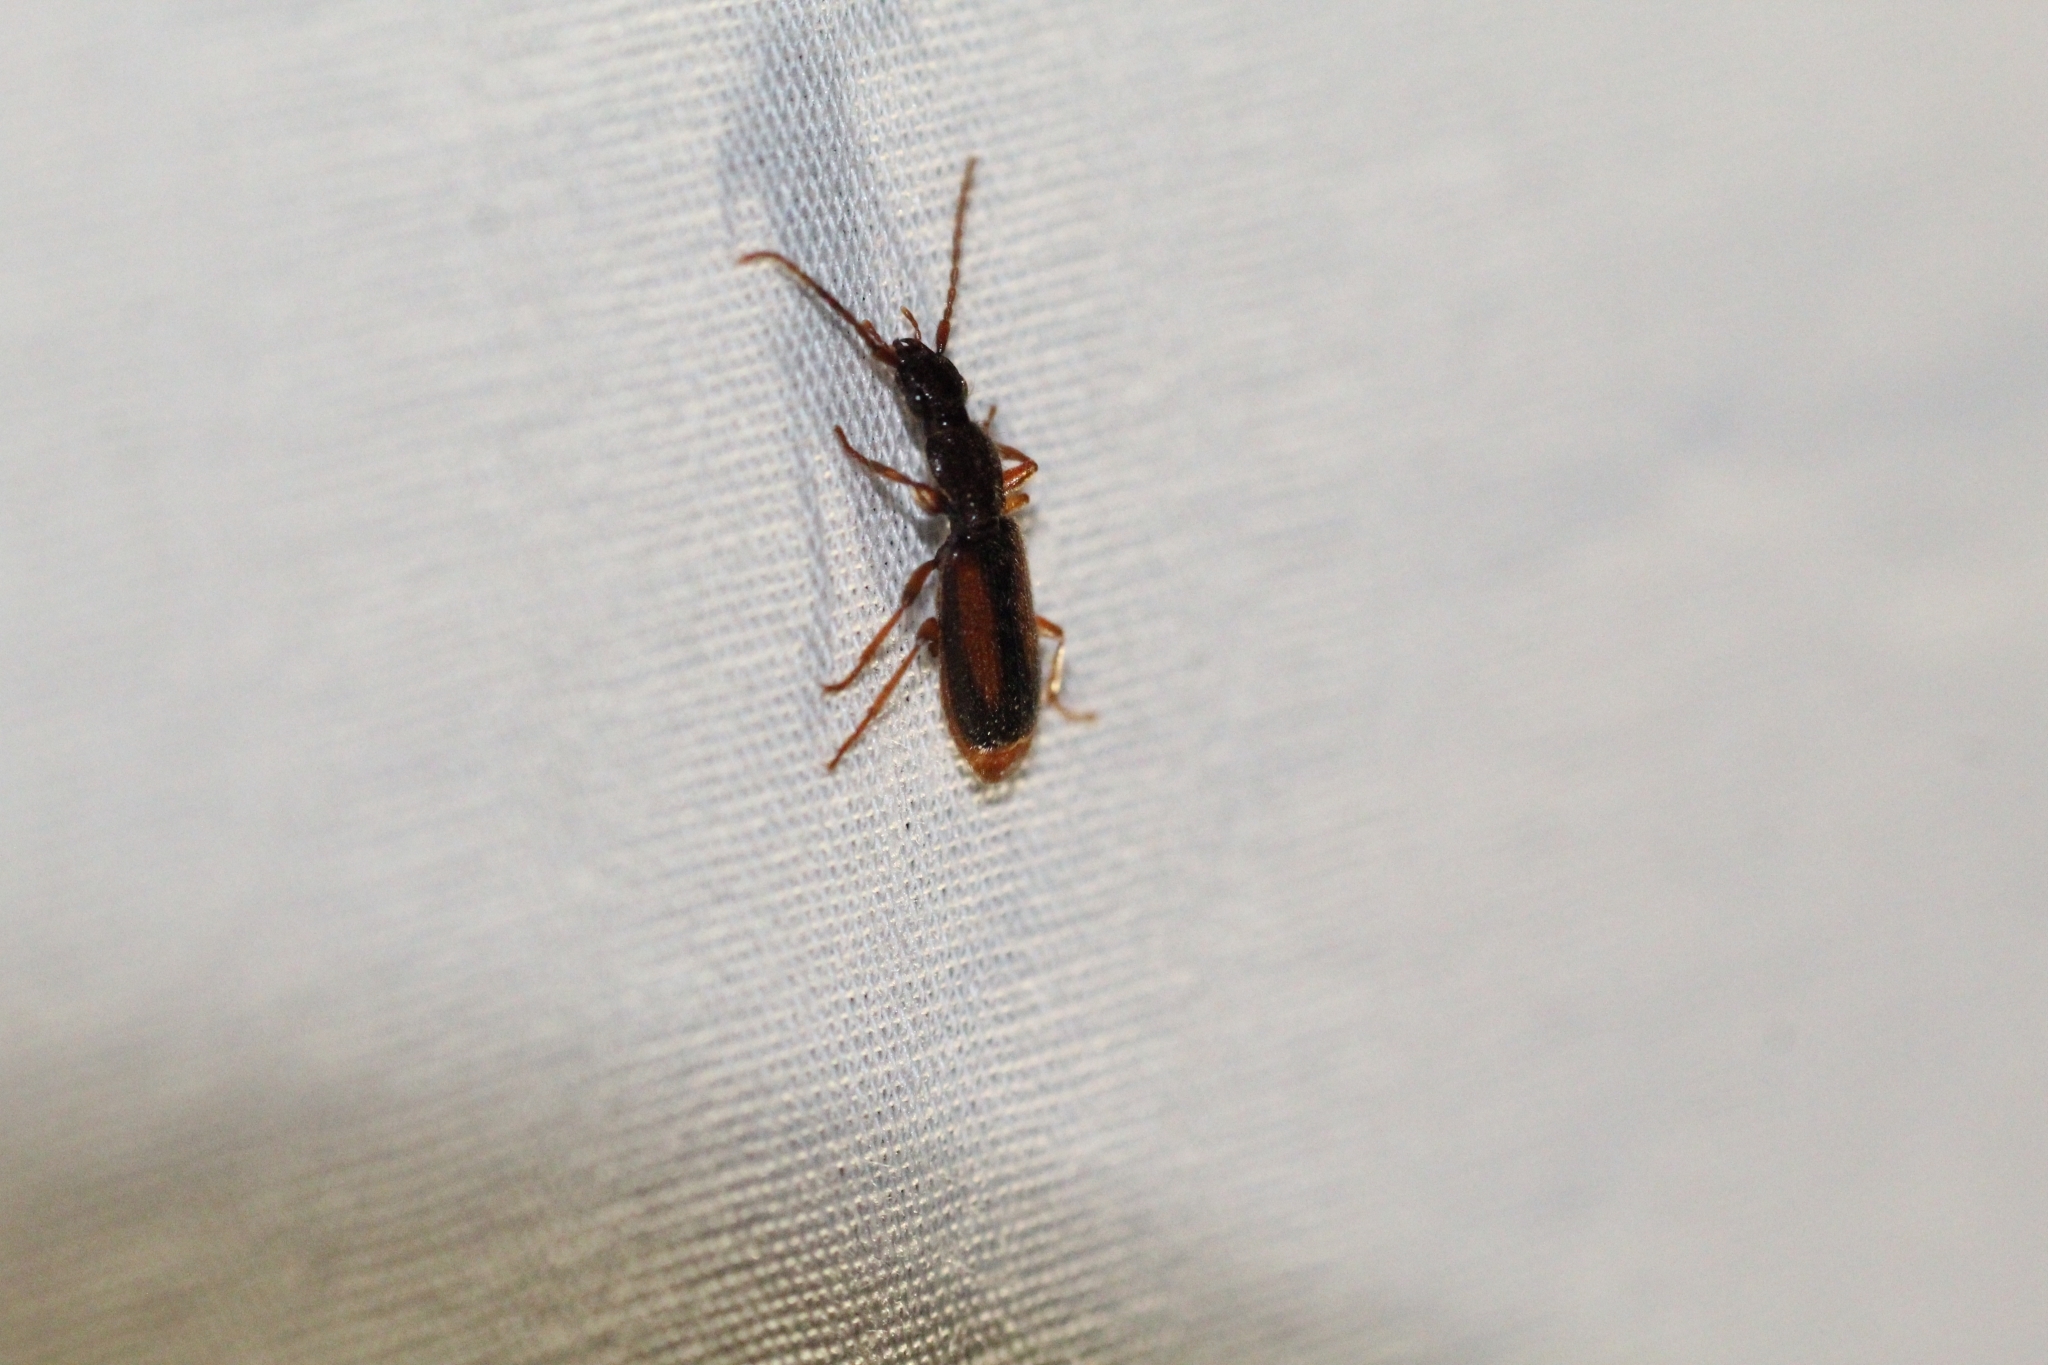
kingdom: Animalia
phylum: Arthropoda
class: Insecta
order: Coleoptera
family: Carabidae
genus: Polistichus
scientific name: Polistichus connexus
